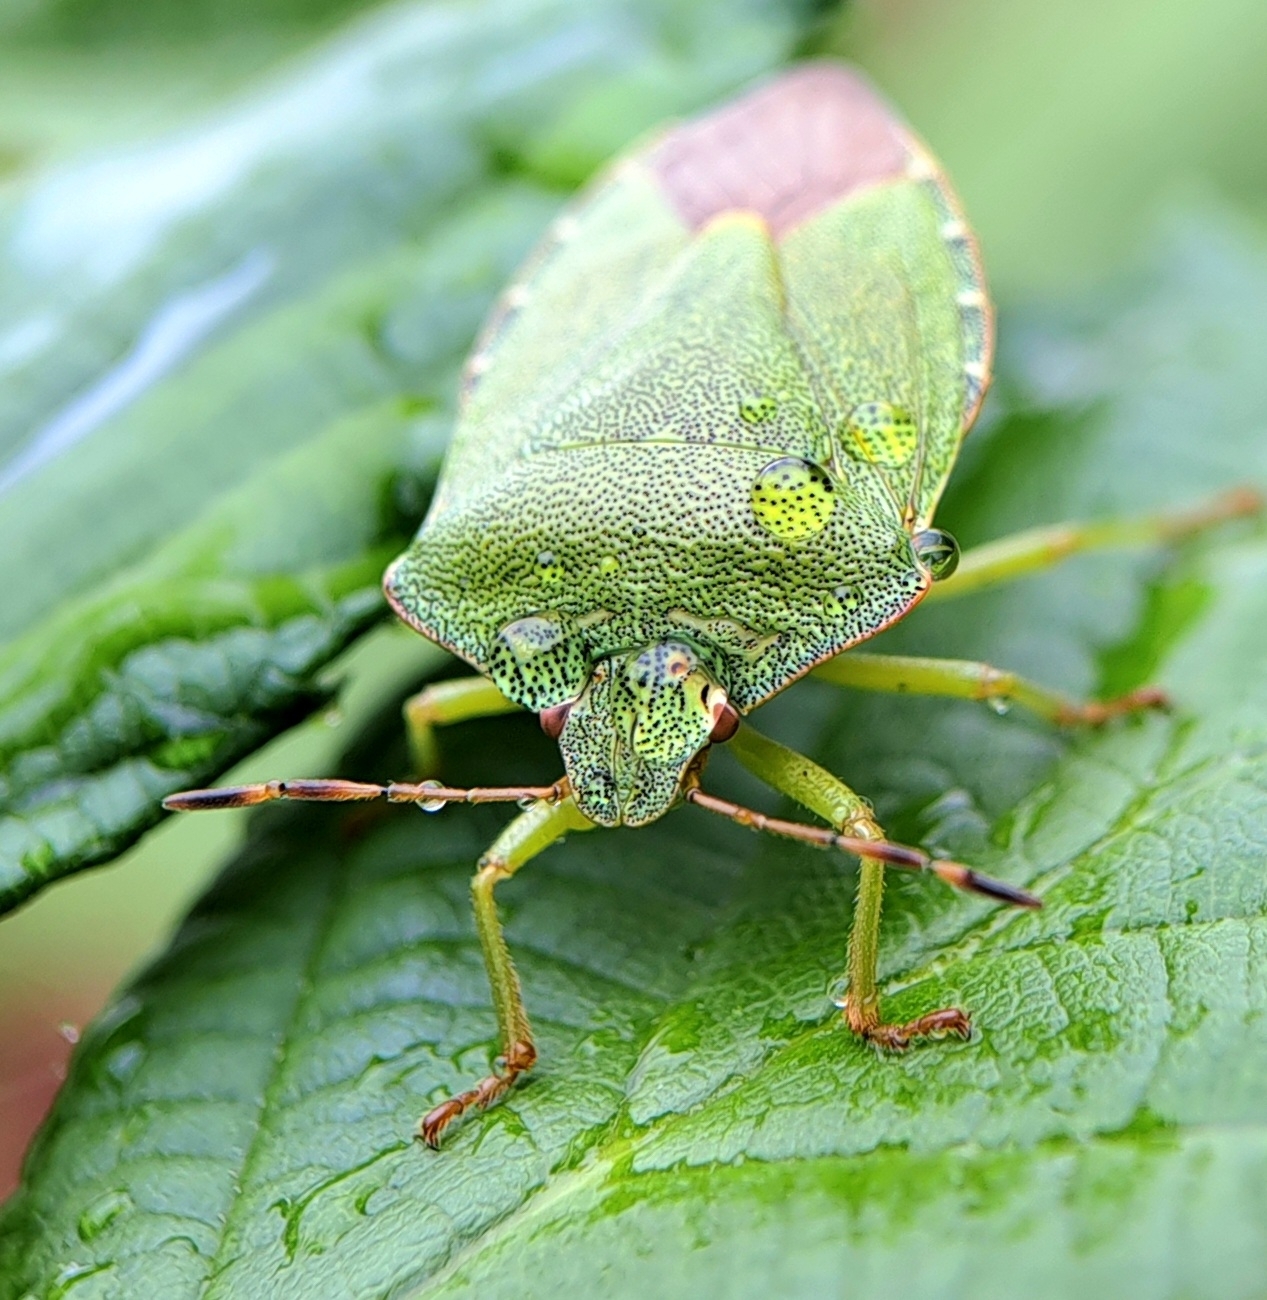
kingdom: Animalia
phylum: Arthropoda
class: Insecta
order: Hemiptera
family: Pentatomidae
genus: Palomena
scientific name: Palomena prasina
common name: Green shieldbug
